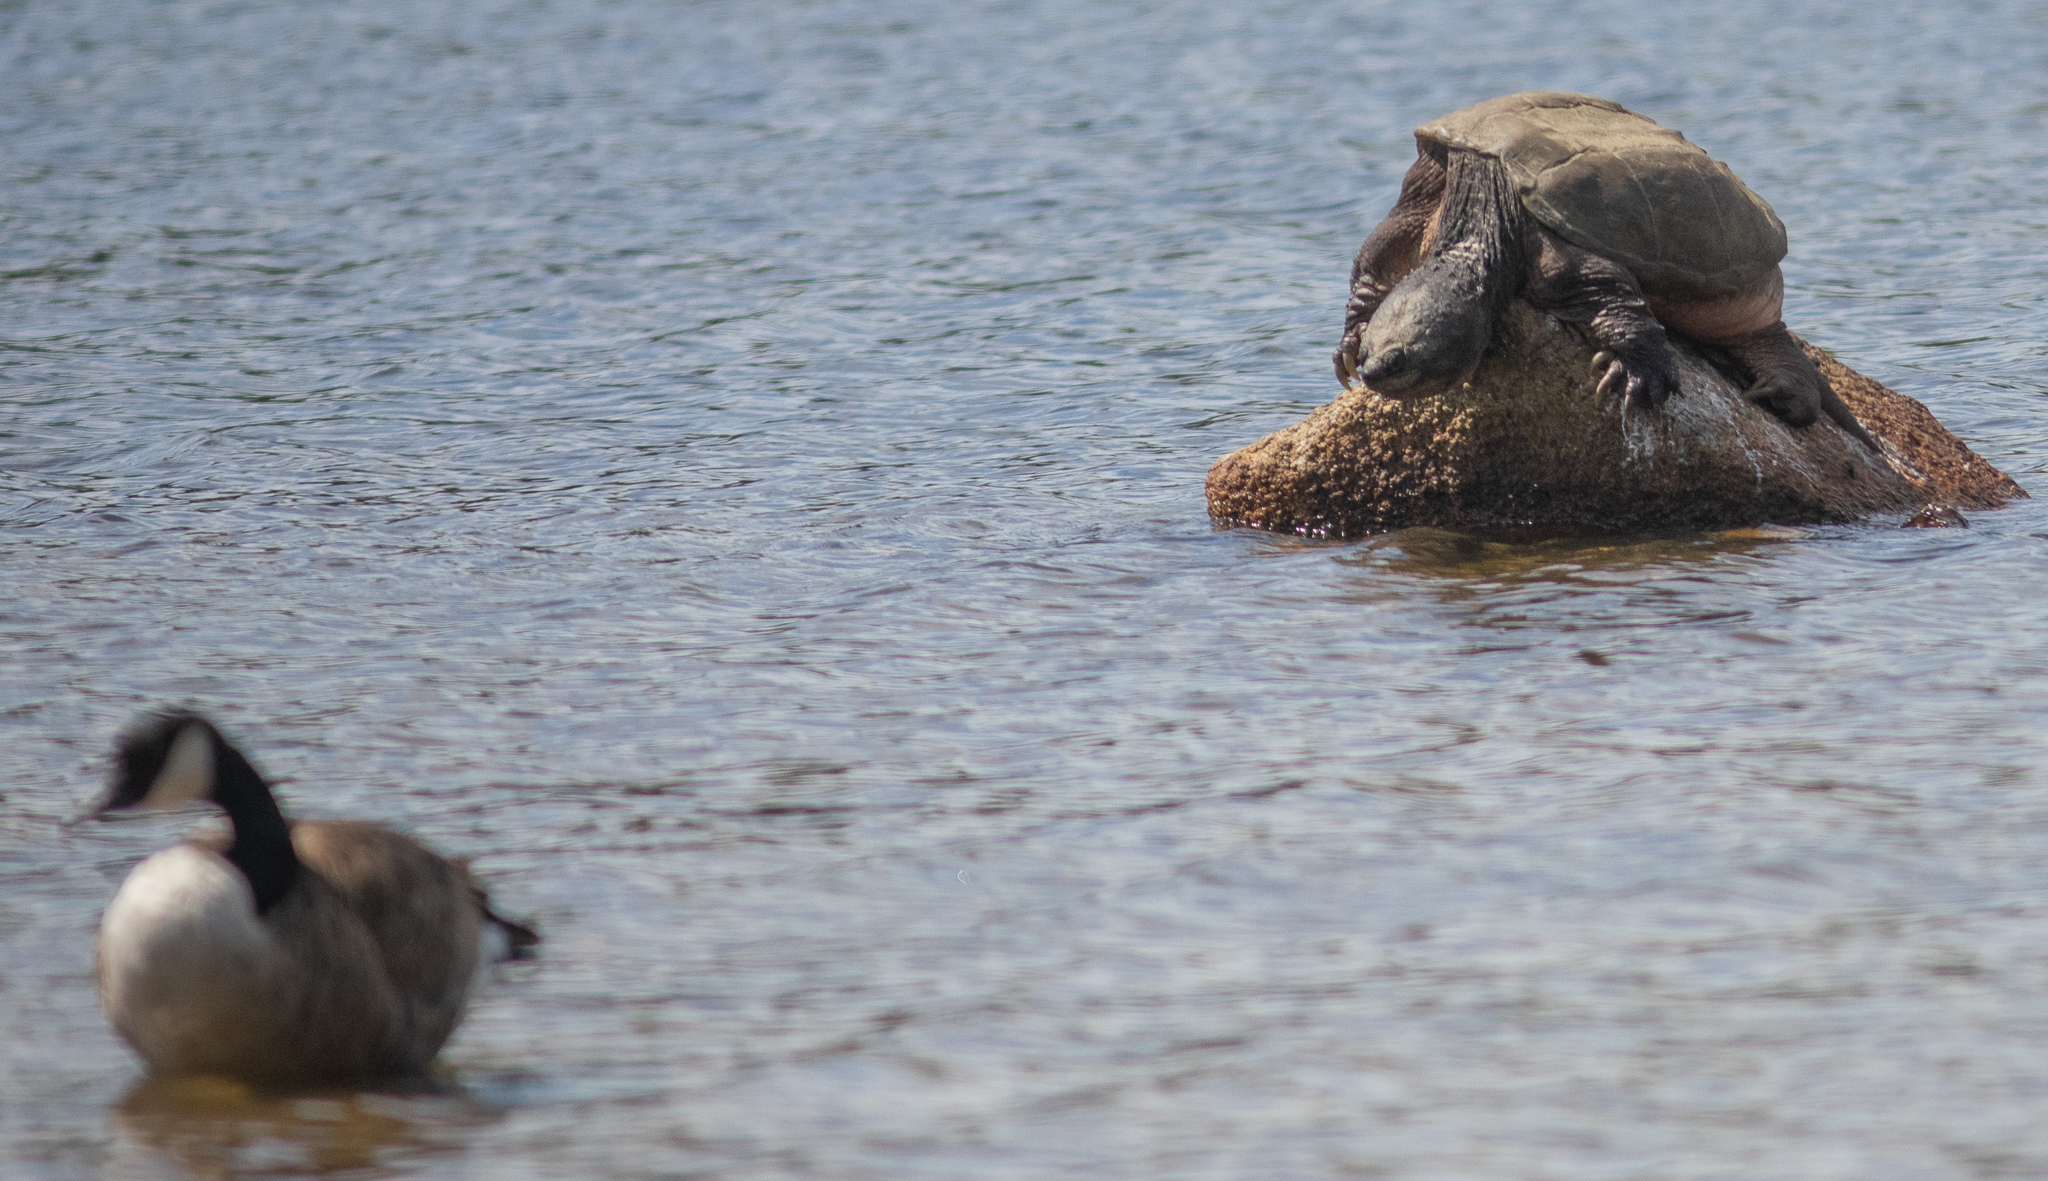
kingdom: Animalia
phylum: Chordata
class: Testudines
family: Chelydridae
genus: Chelydra
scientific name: Chelydra serpentina
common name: Common snapping turtle
